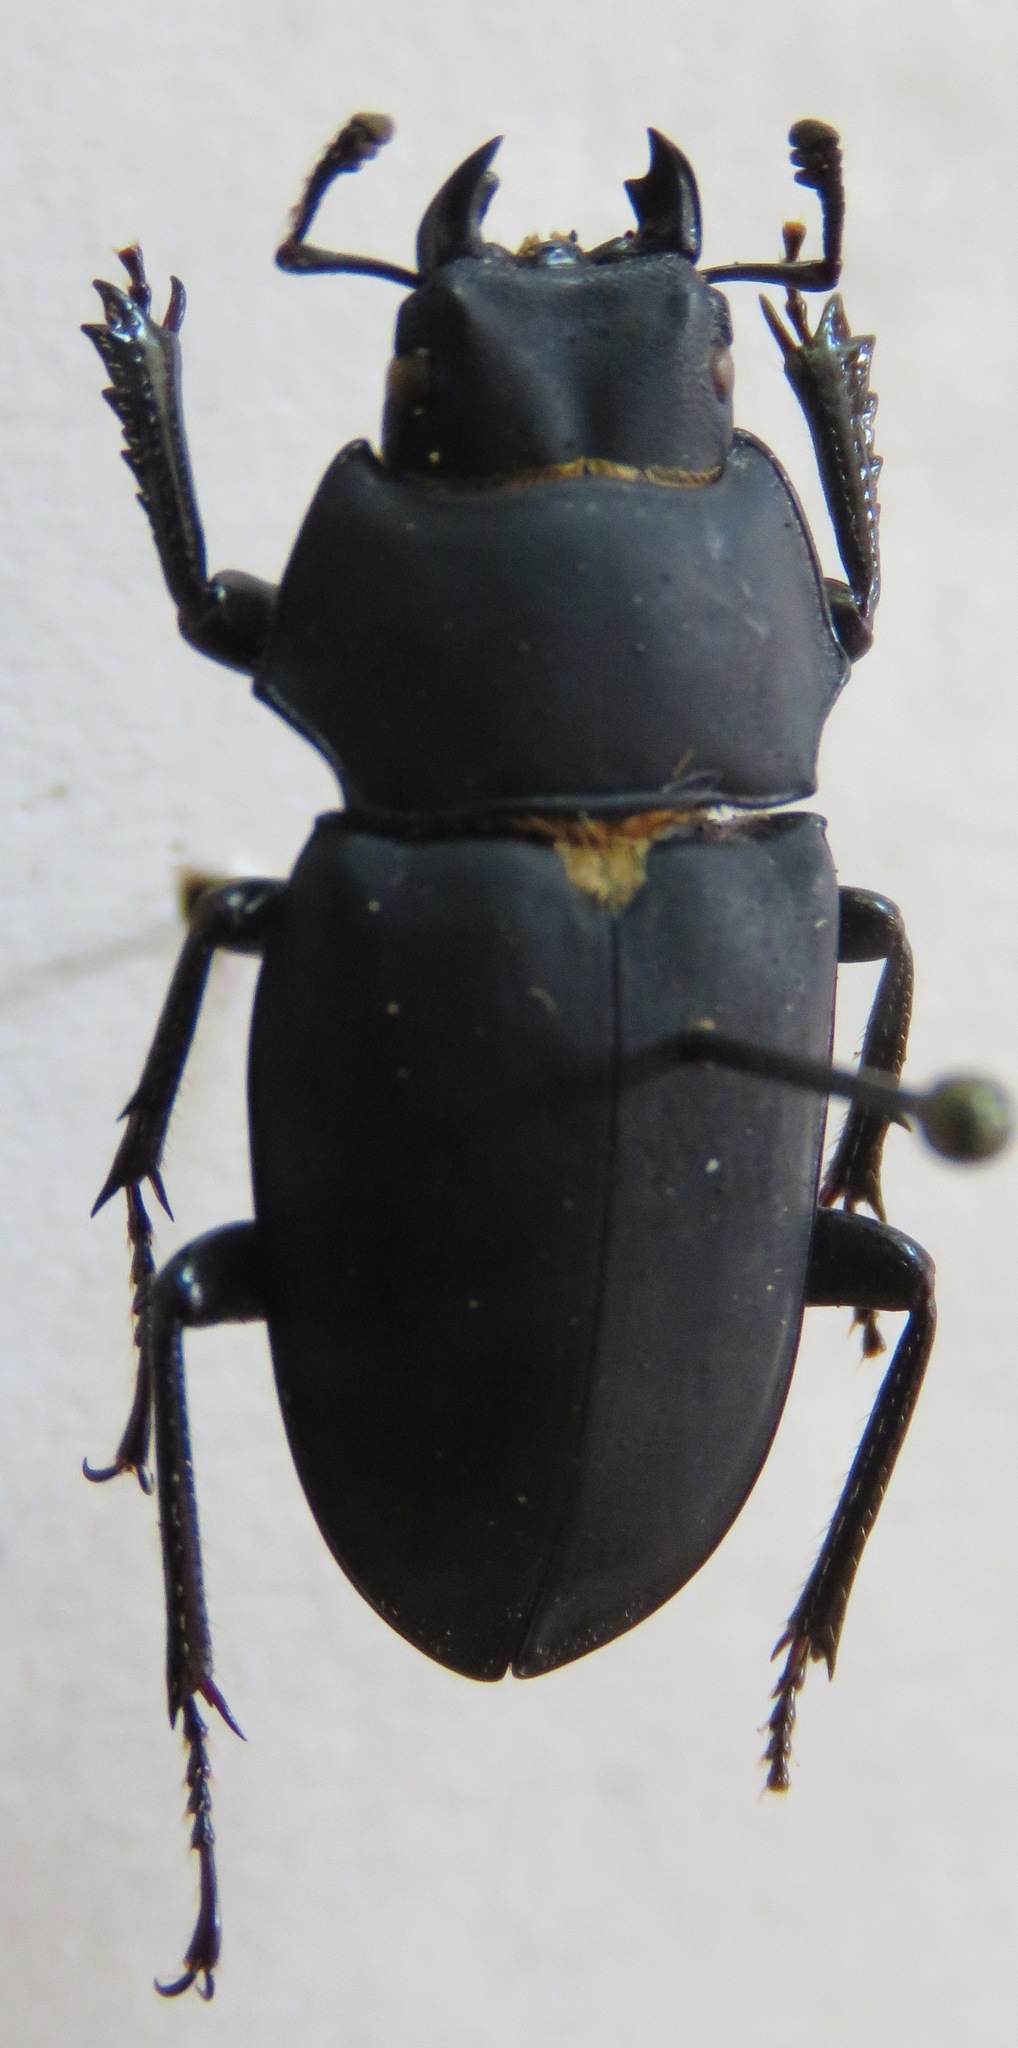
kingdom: Animalia
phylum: Arthropoda
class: Insecta
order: Coleoptera
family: Lucanidae
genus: Leptinopterus
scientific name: Leptinopterus fryi
